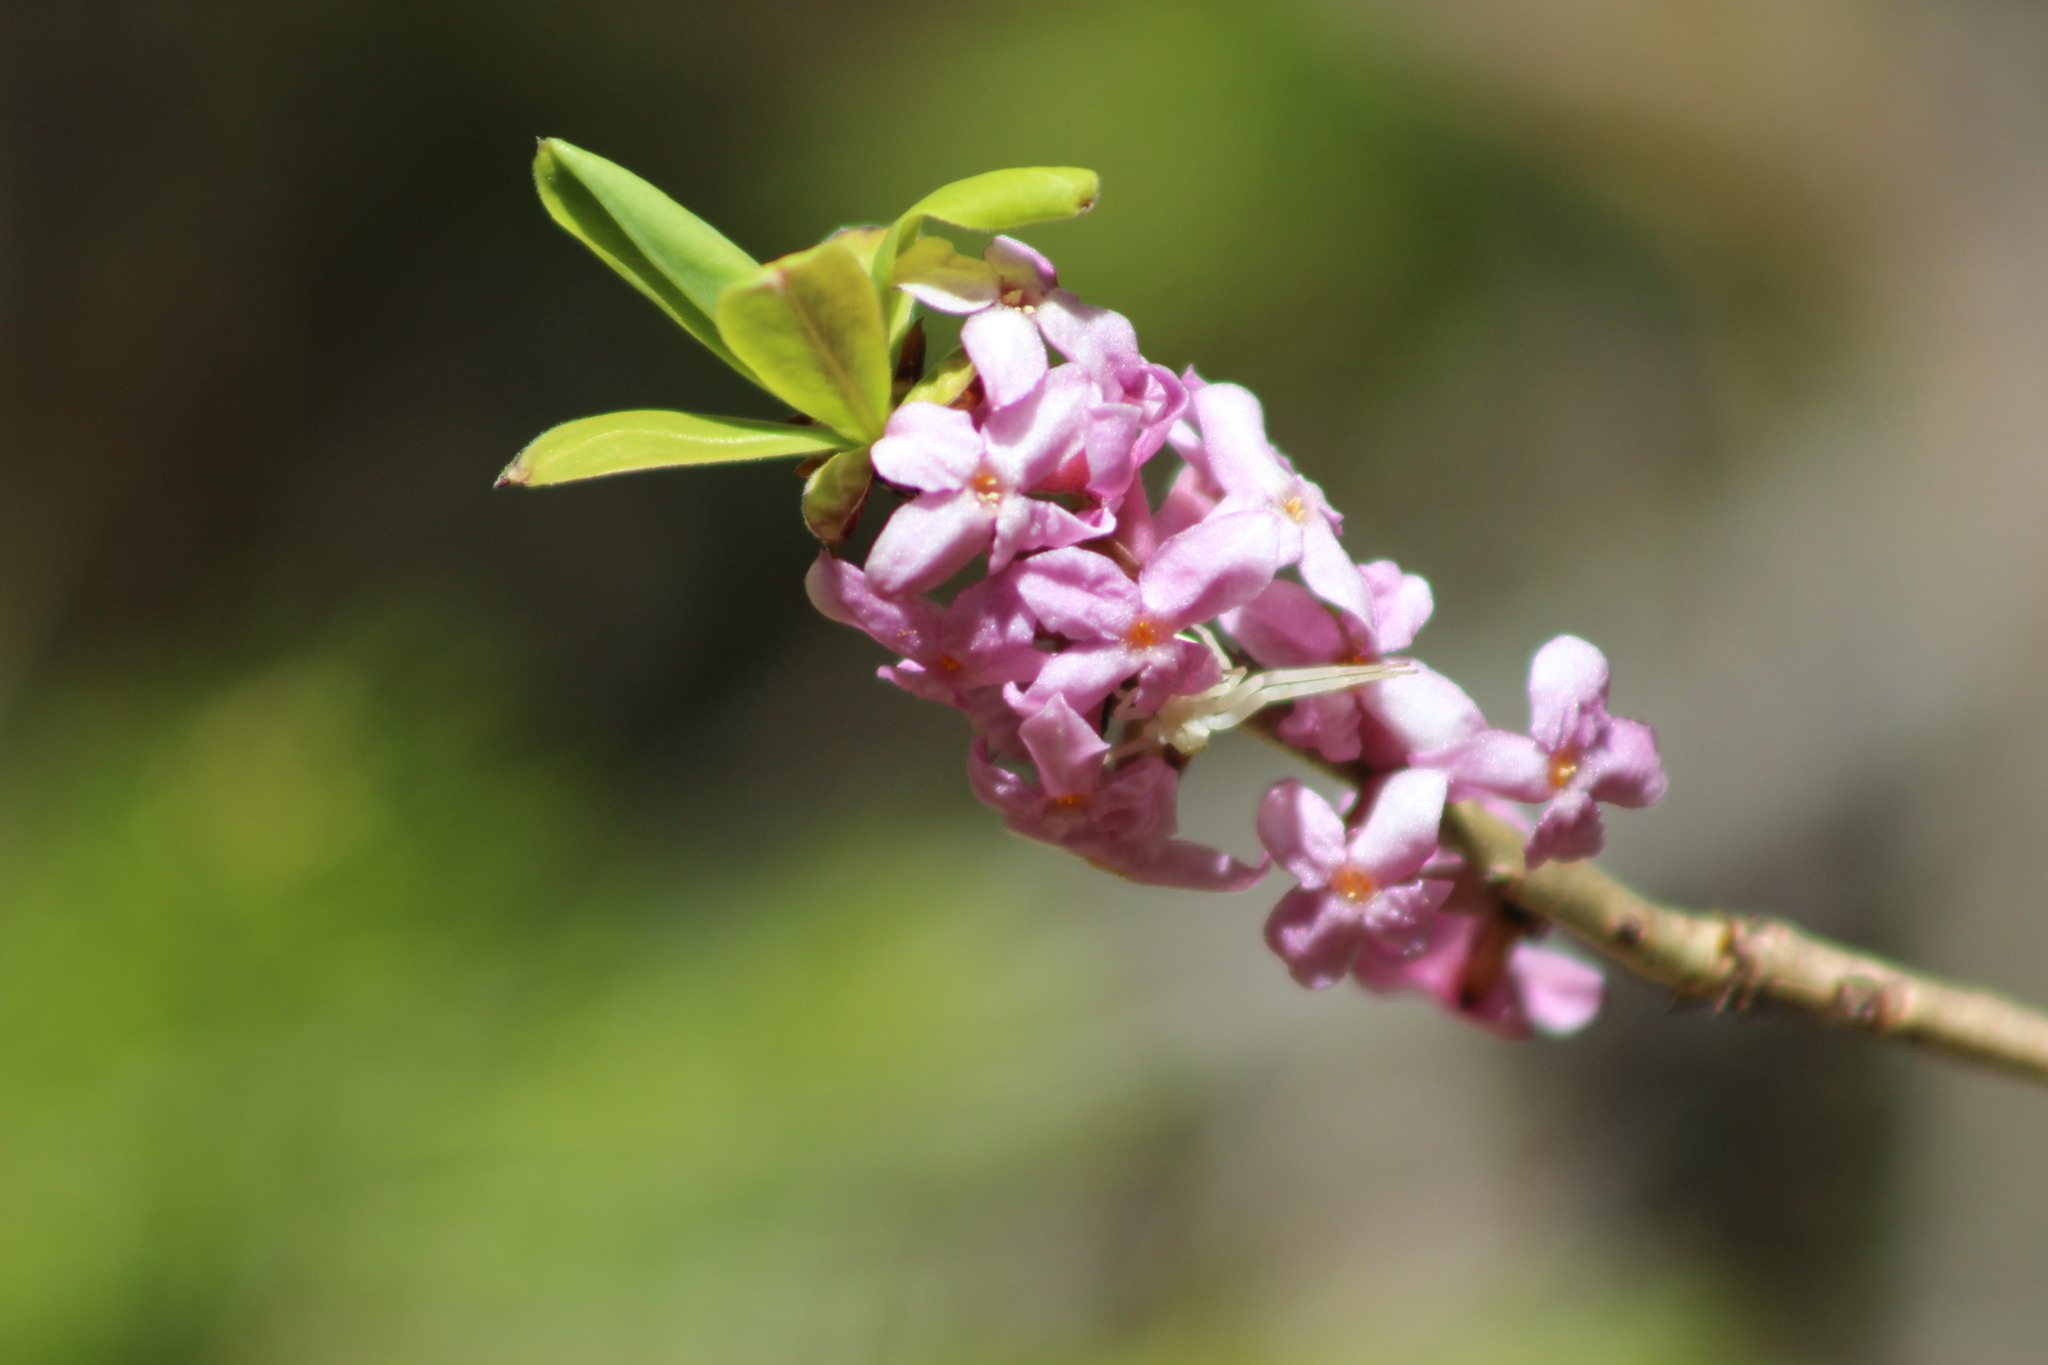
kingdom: Plantae
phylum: Tracheophyta
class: Magnoliopsida
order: Malvales
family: Thymelaeaceae
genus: Daphne
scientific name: Daphne mezereum
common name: Mezereon
